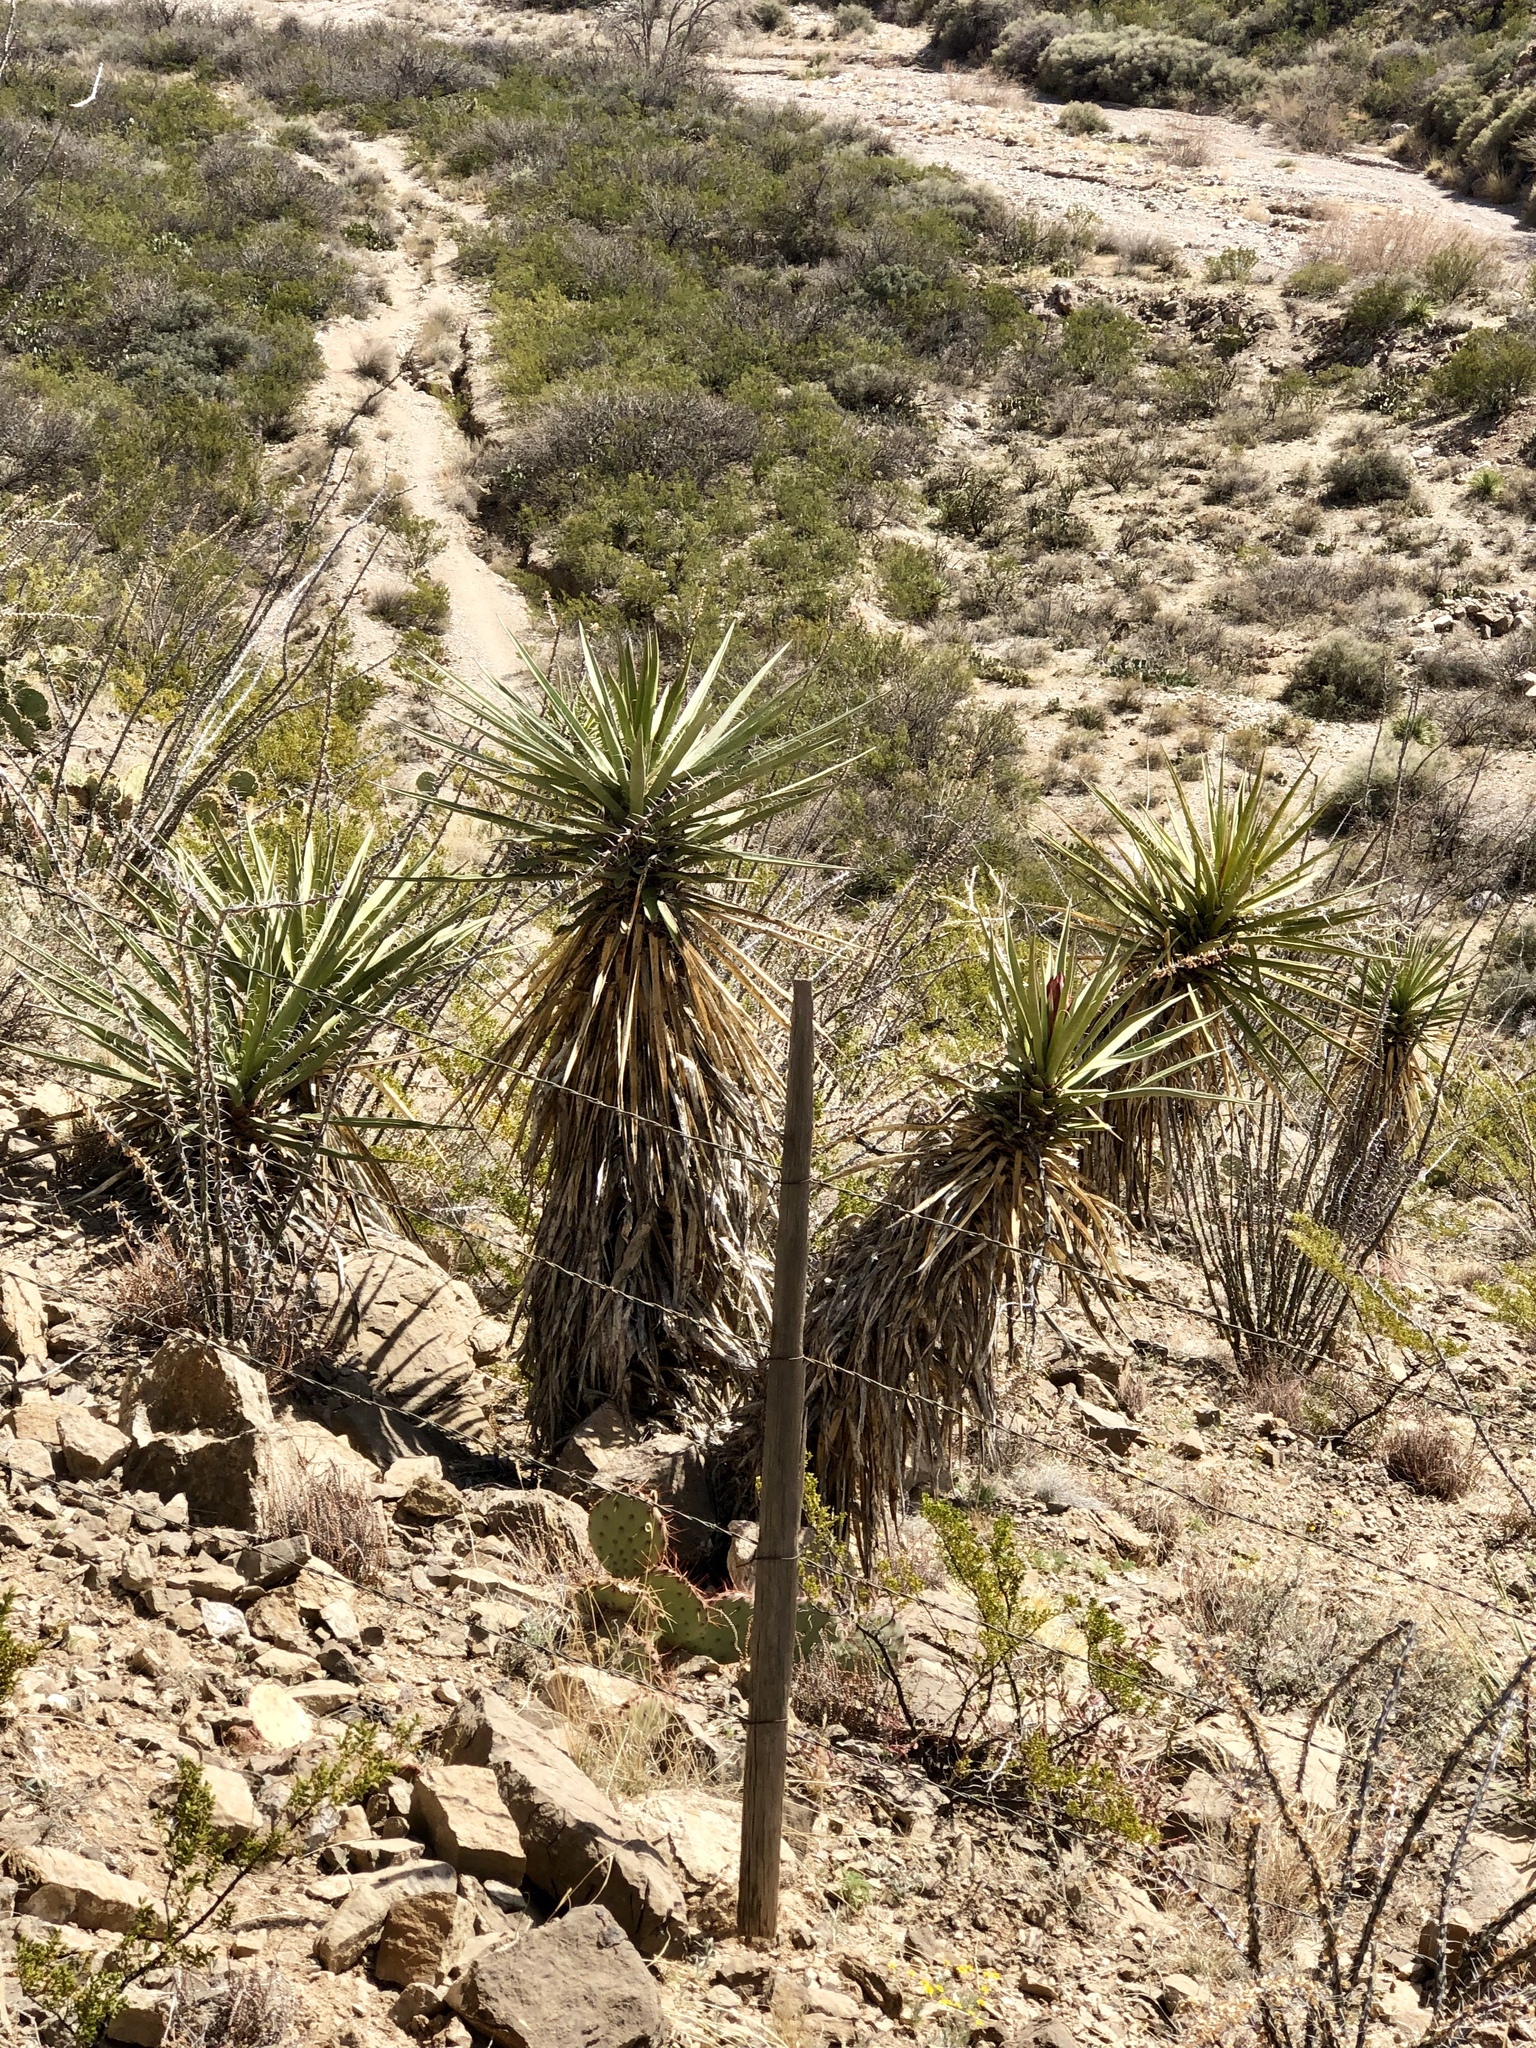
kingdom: Plantae
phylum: Tracheophyta
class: Liliopsida
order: Asparagales
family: Asparagaceae
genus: Yucca
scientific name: Yucca treculiana
